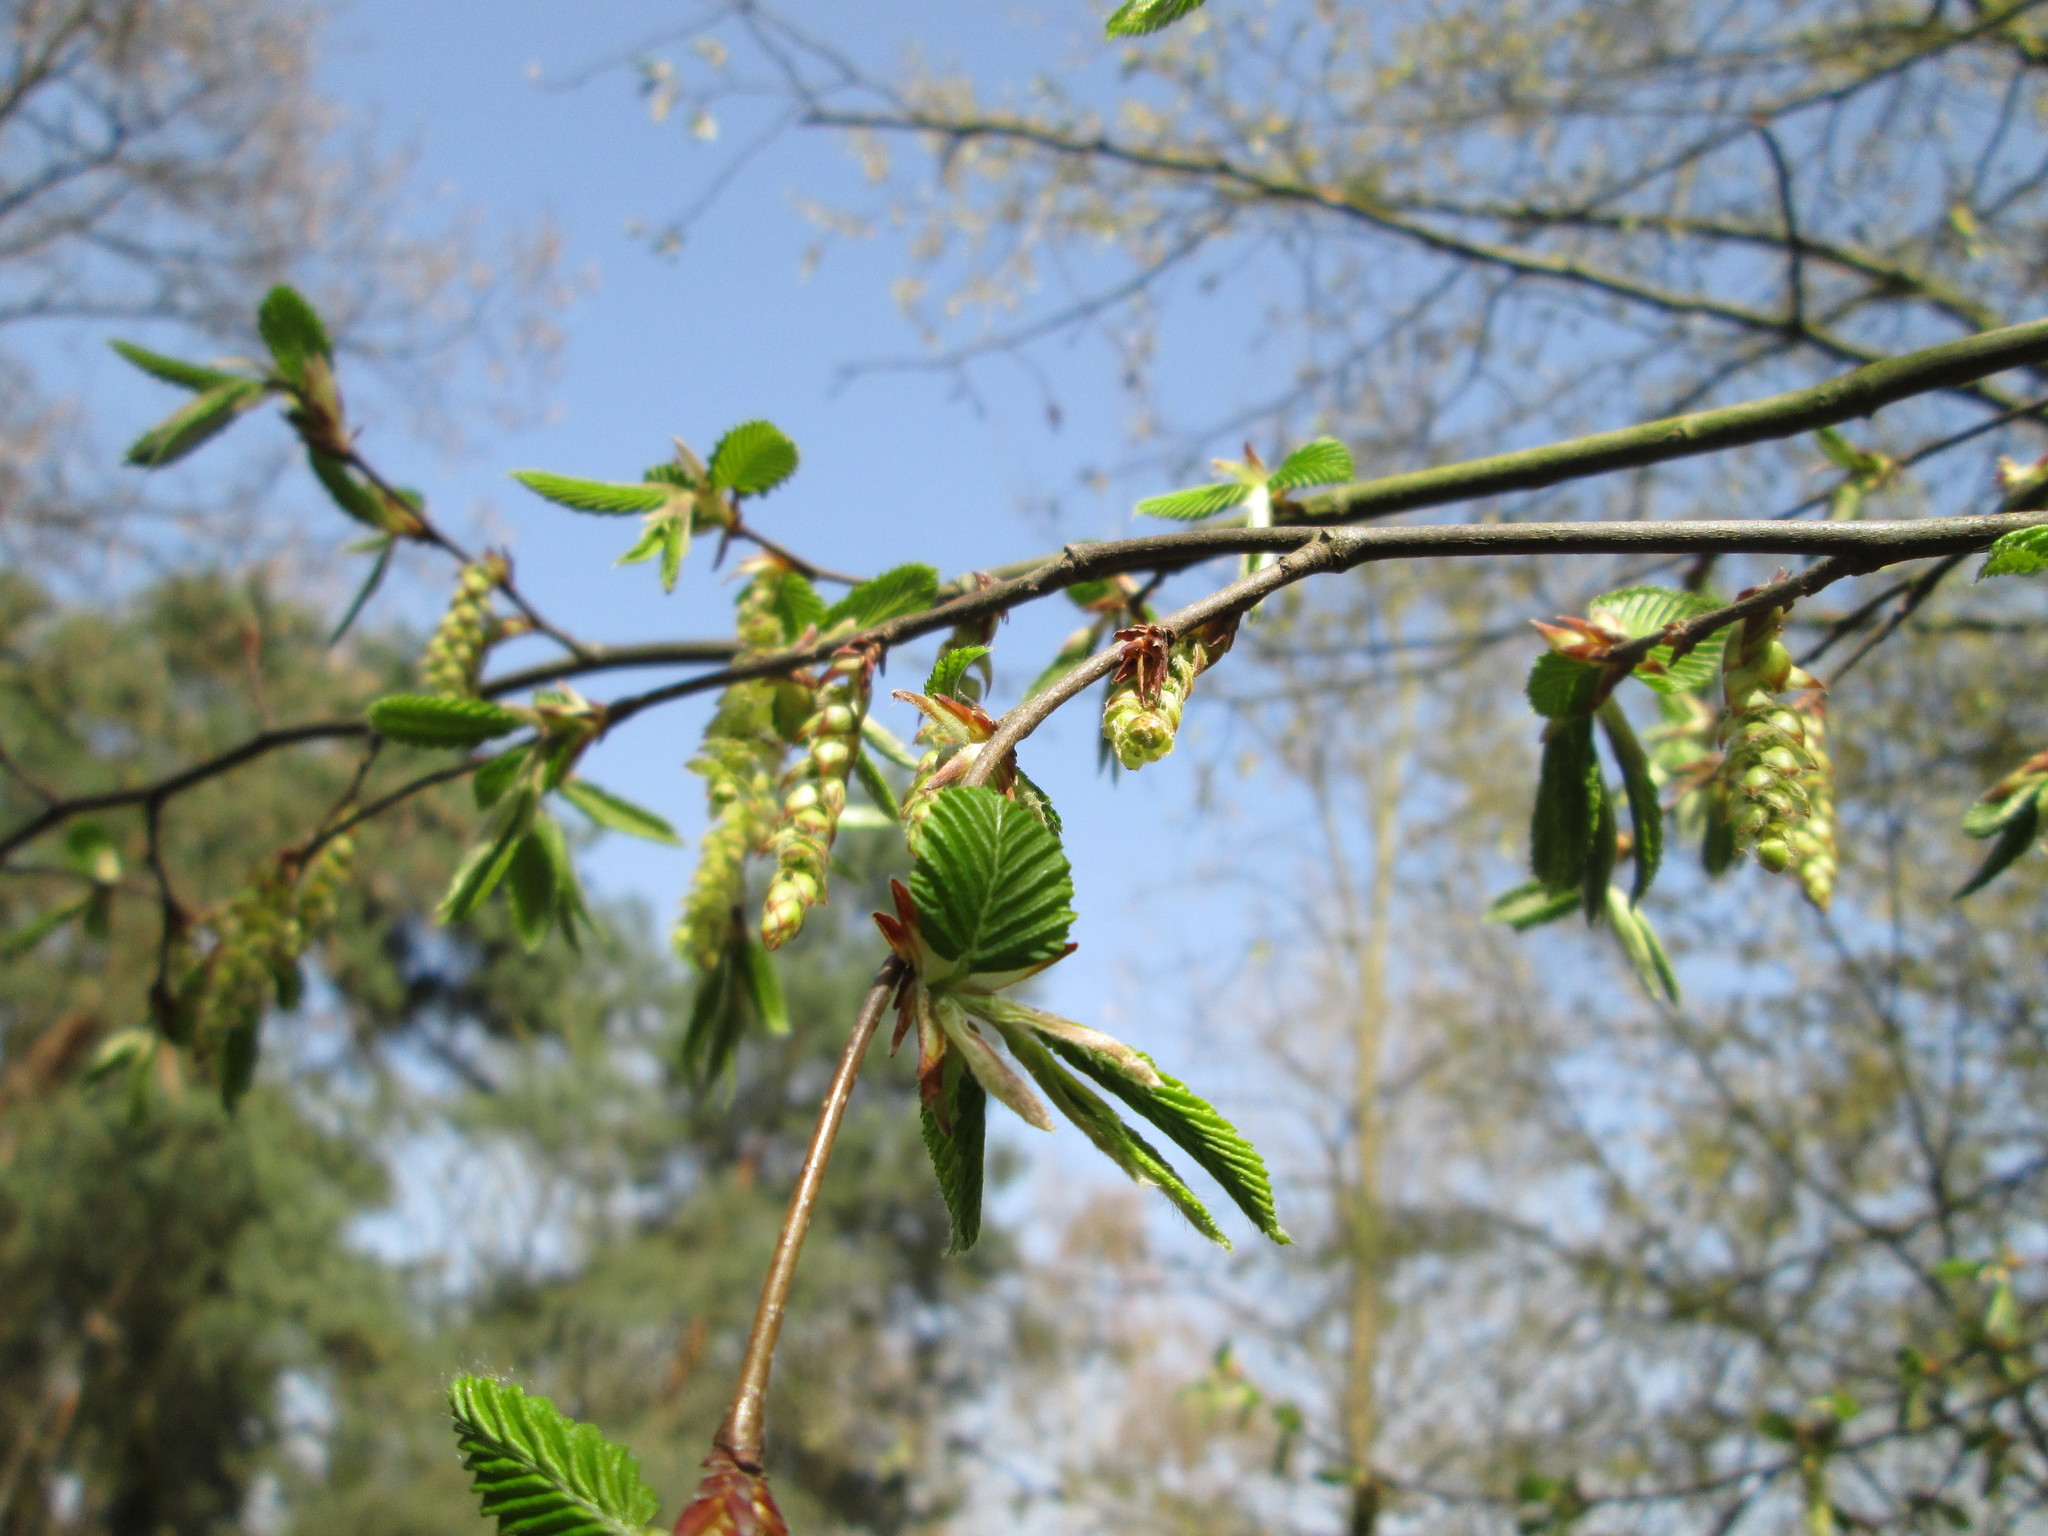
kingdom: Plantae
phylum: Tracheophyta
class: Magnoliopsida
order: Fagales
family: Betulaceae
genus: Carpinus
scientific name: Carpinus betulus
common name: Hornbeam
